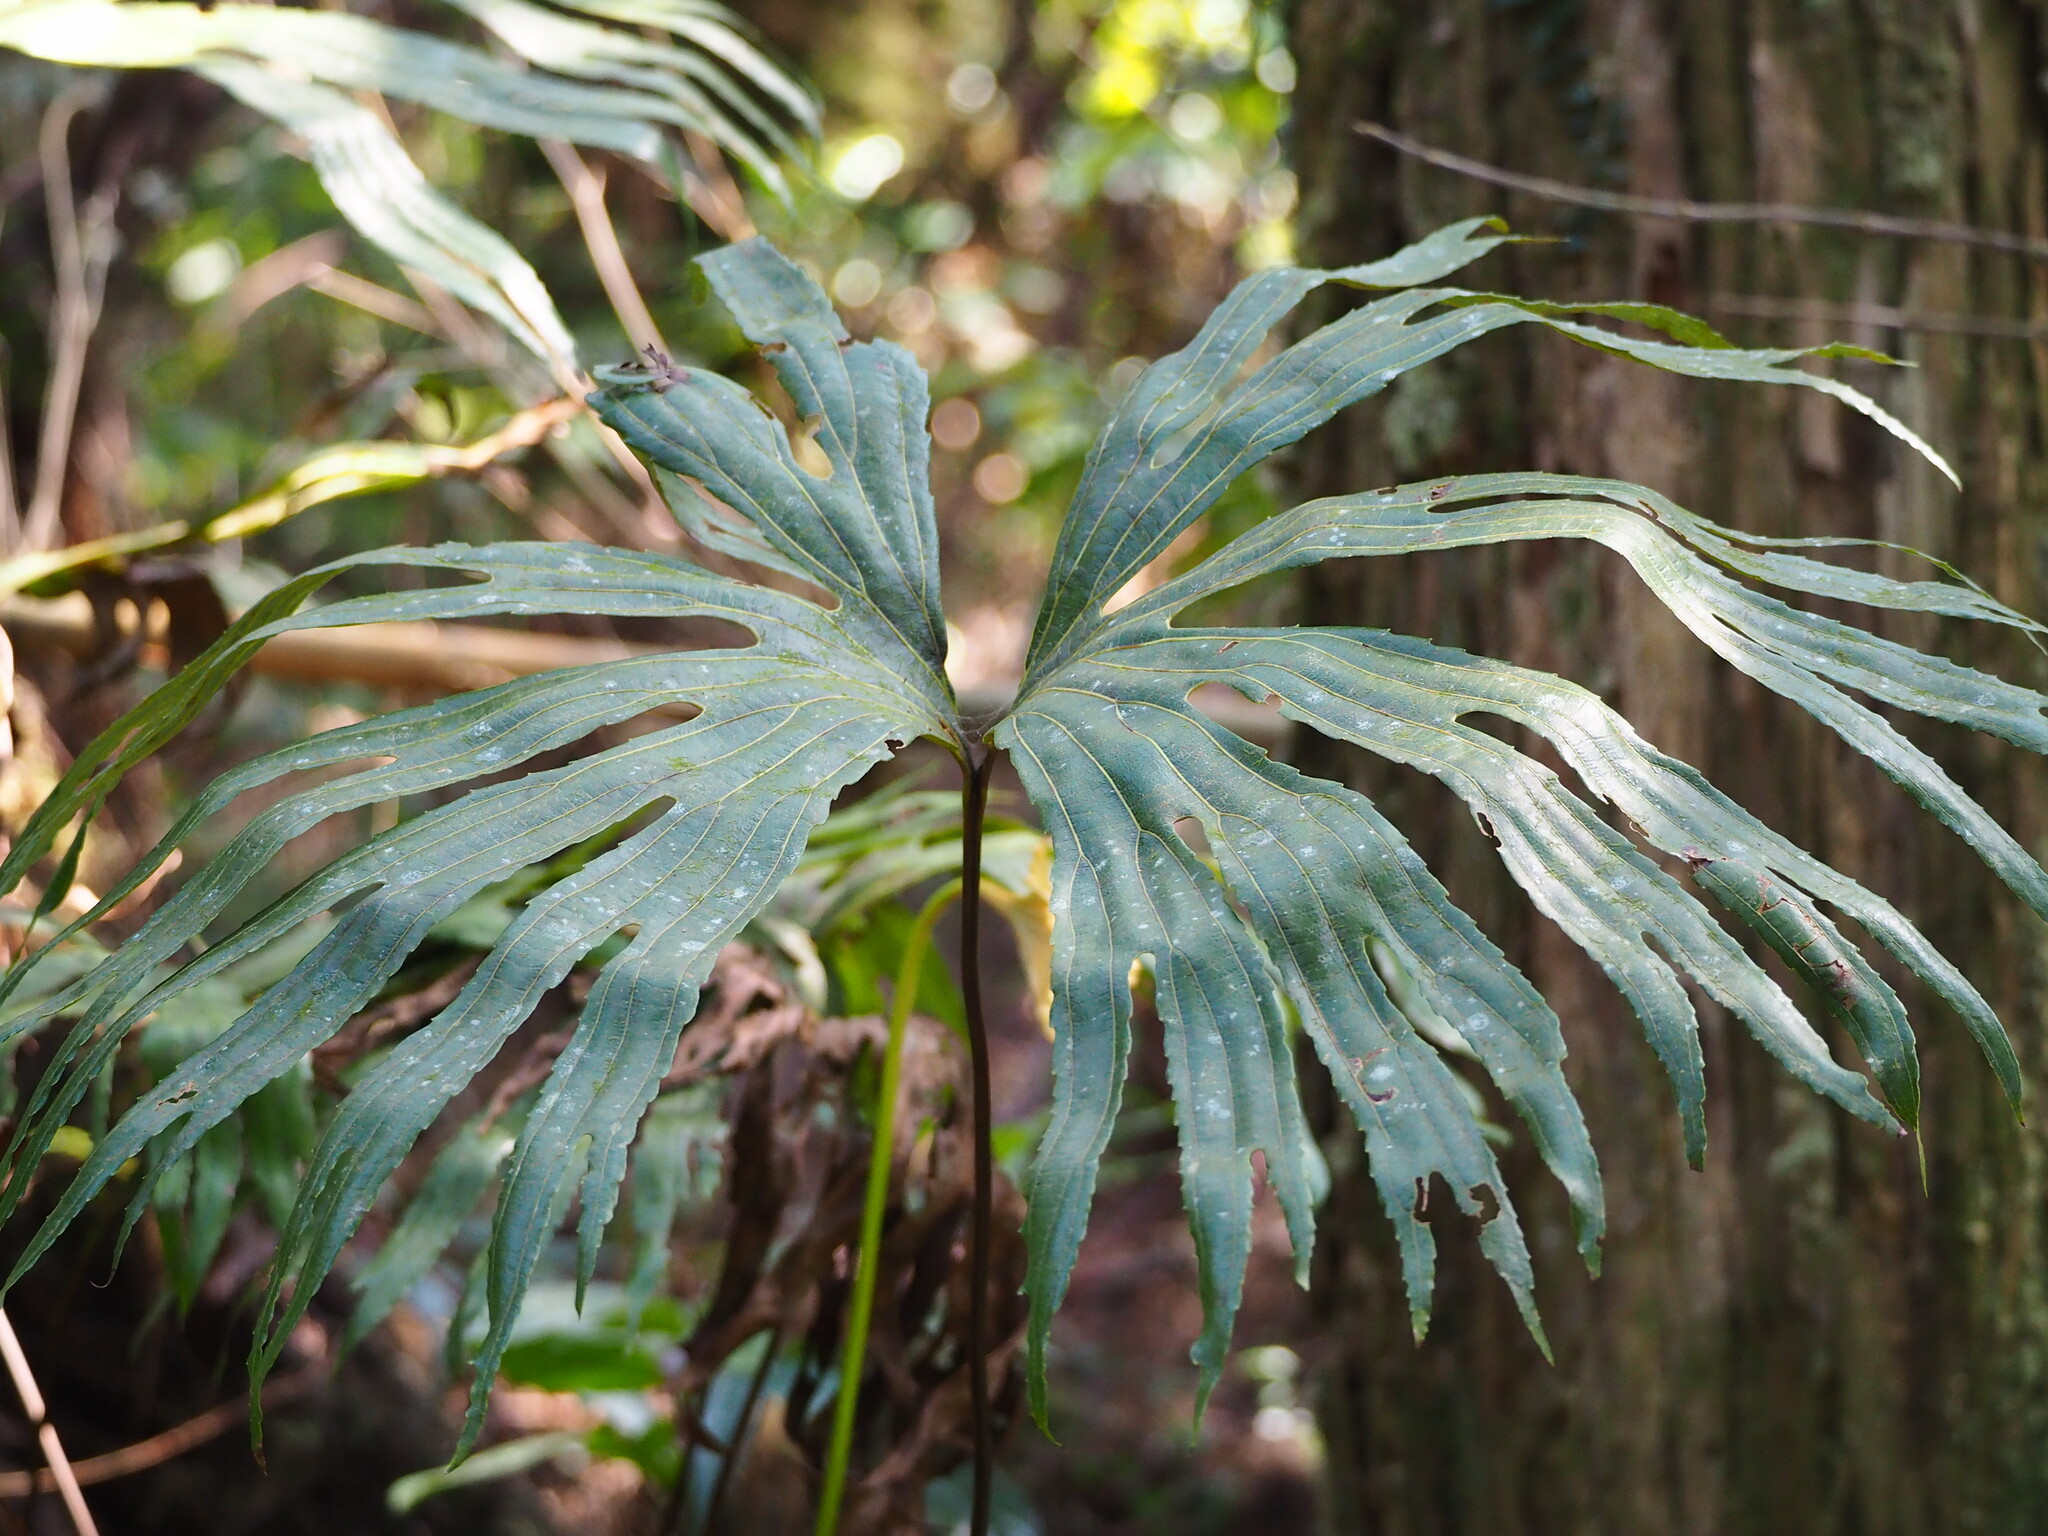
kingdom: Plantae
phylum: Tracheophyta
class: Polypodiopsida
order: Gleicheniales
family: Dipteridaceae
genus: Dipteris
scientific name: Dipteris conjugata
